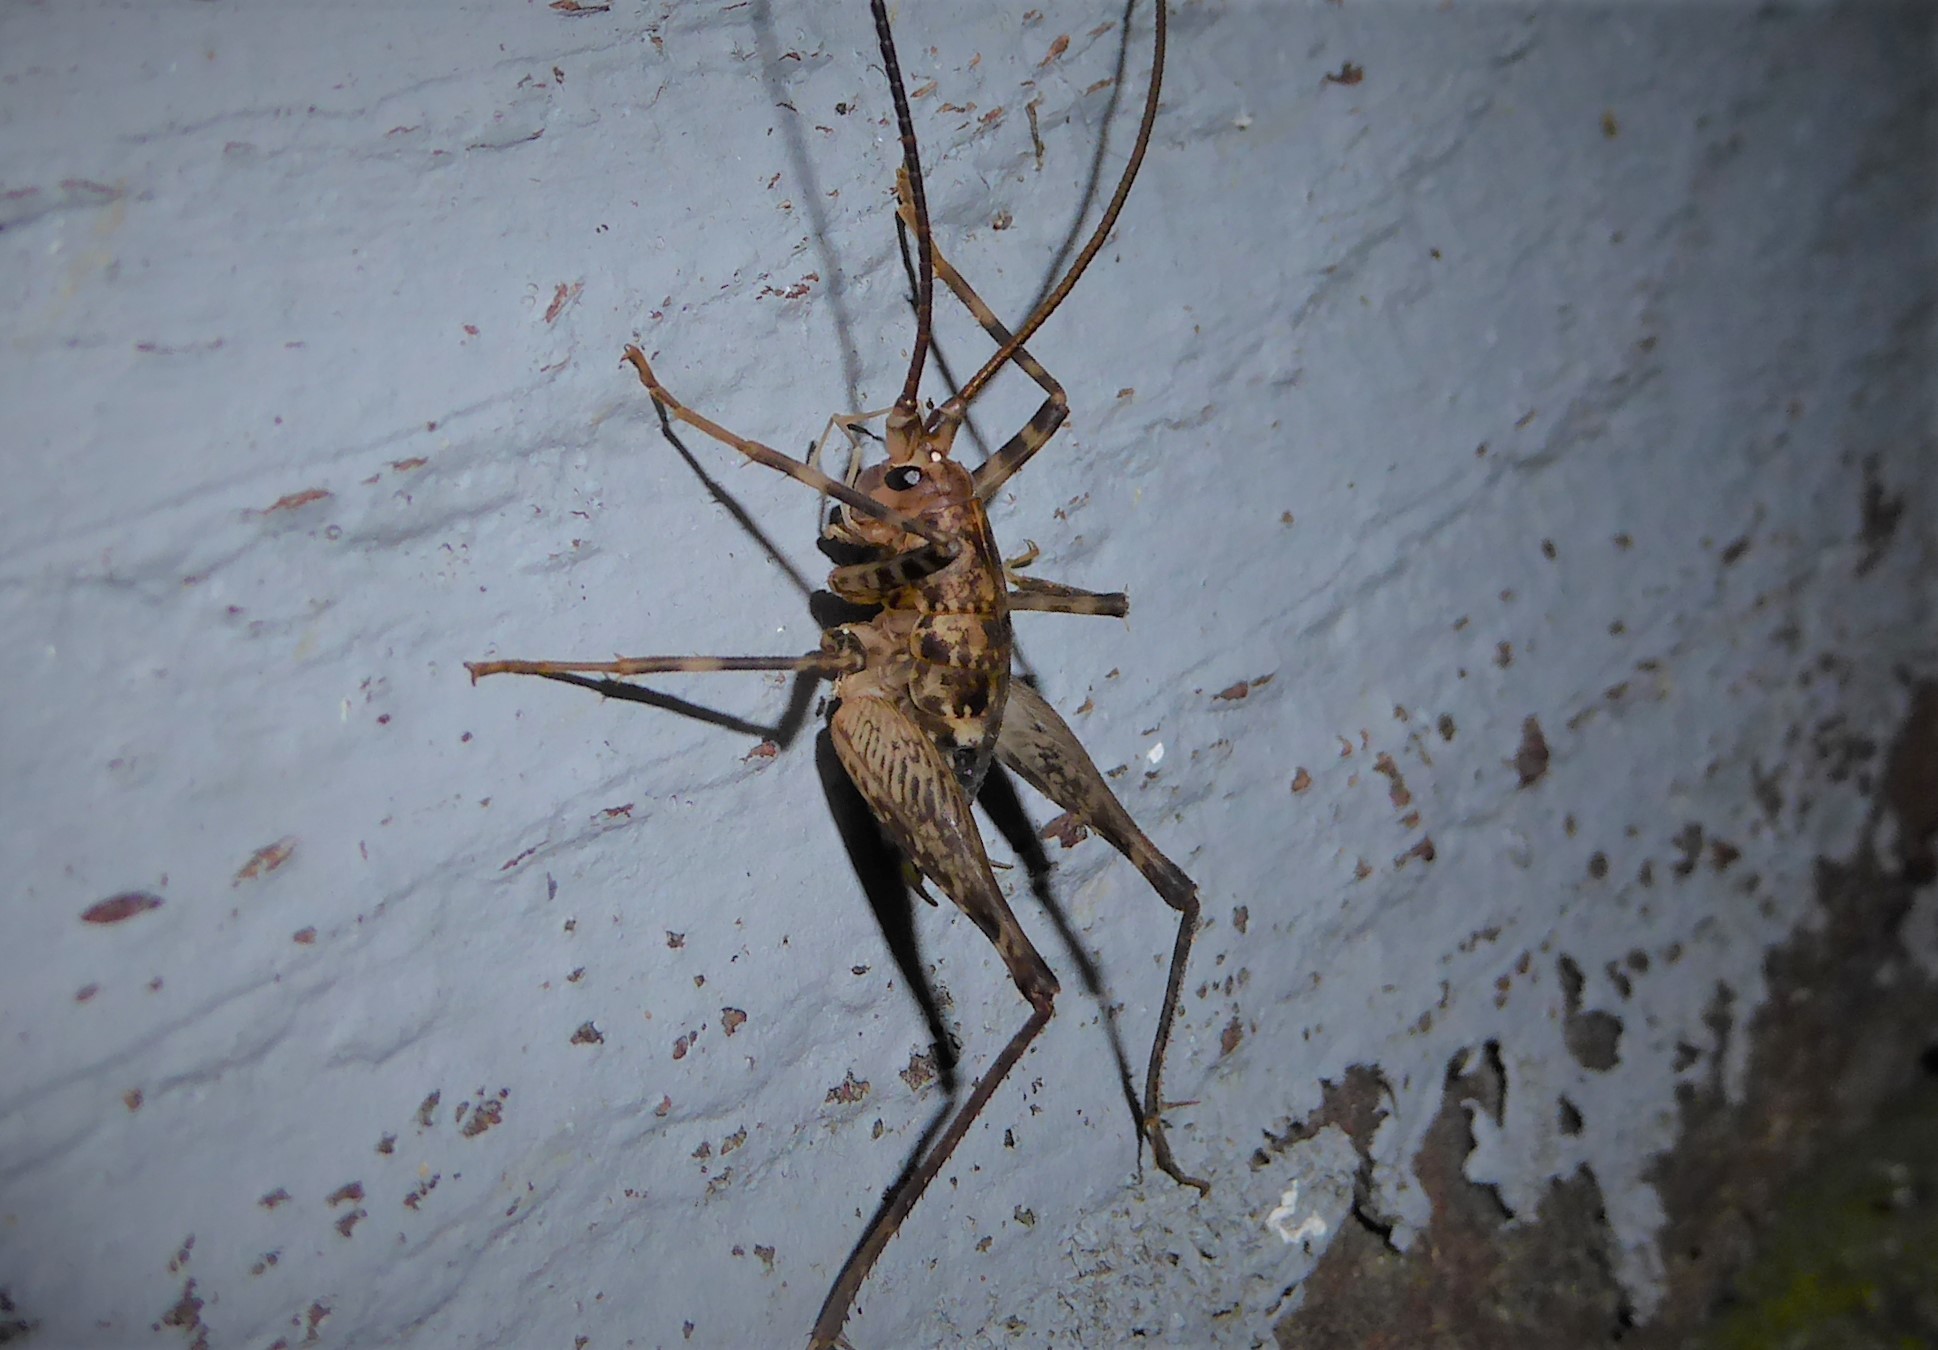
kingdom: Animalia
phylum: Arthropoda
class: Insecta
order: Orthoptera
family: Rhaphidophoridae
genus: Pleioplectron
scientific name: Pleioplectron simplex
